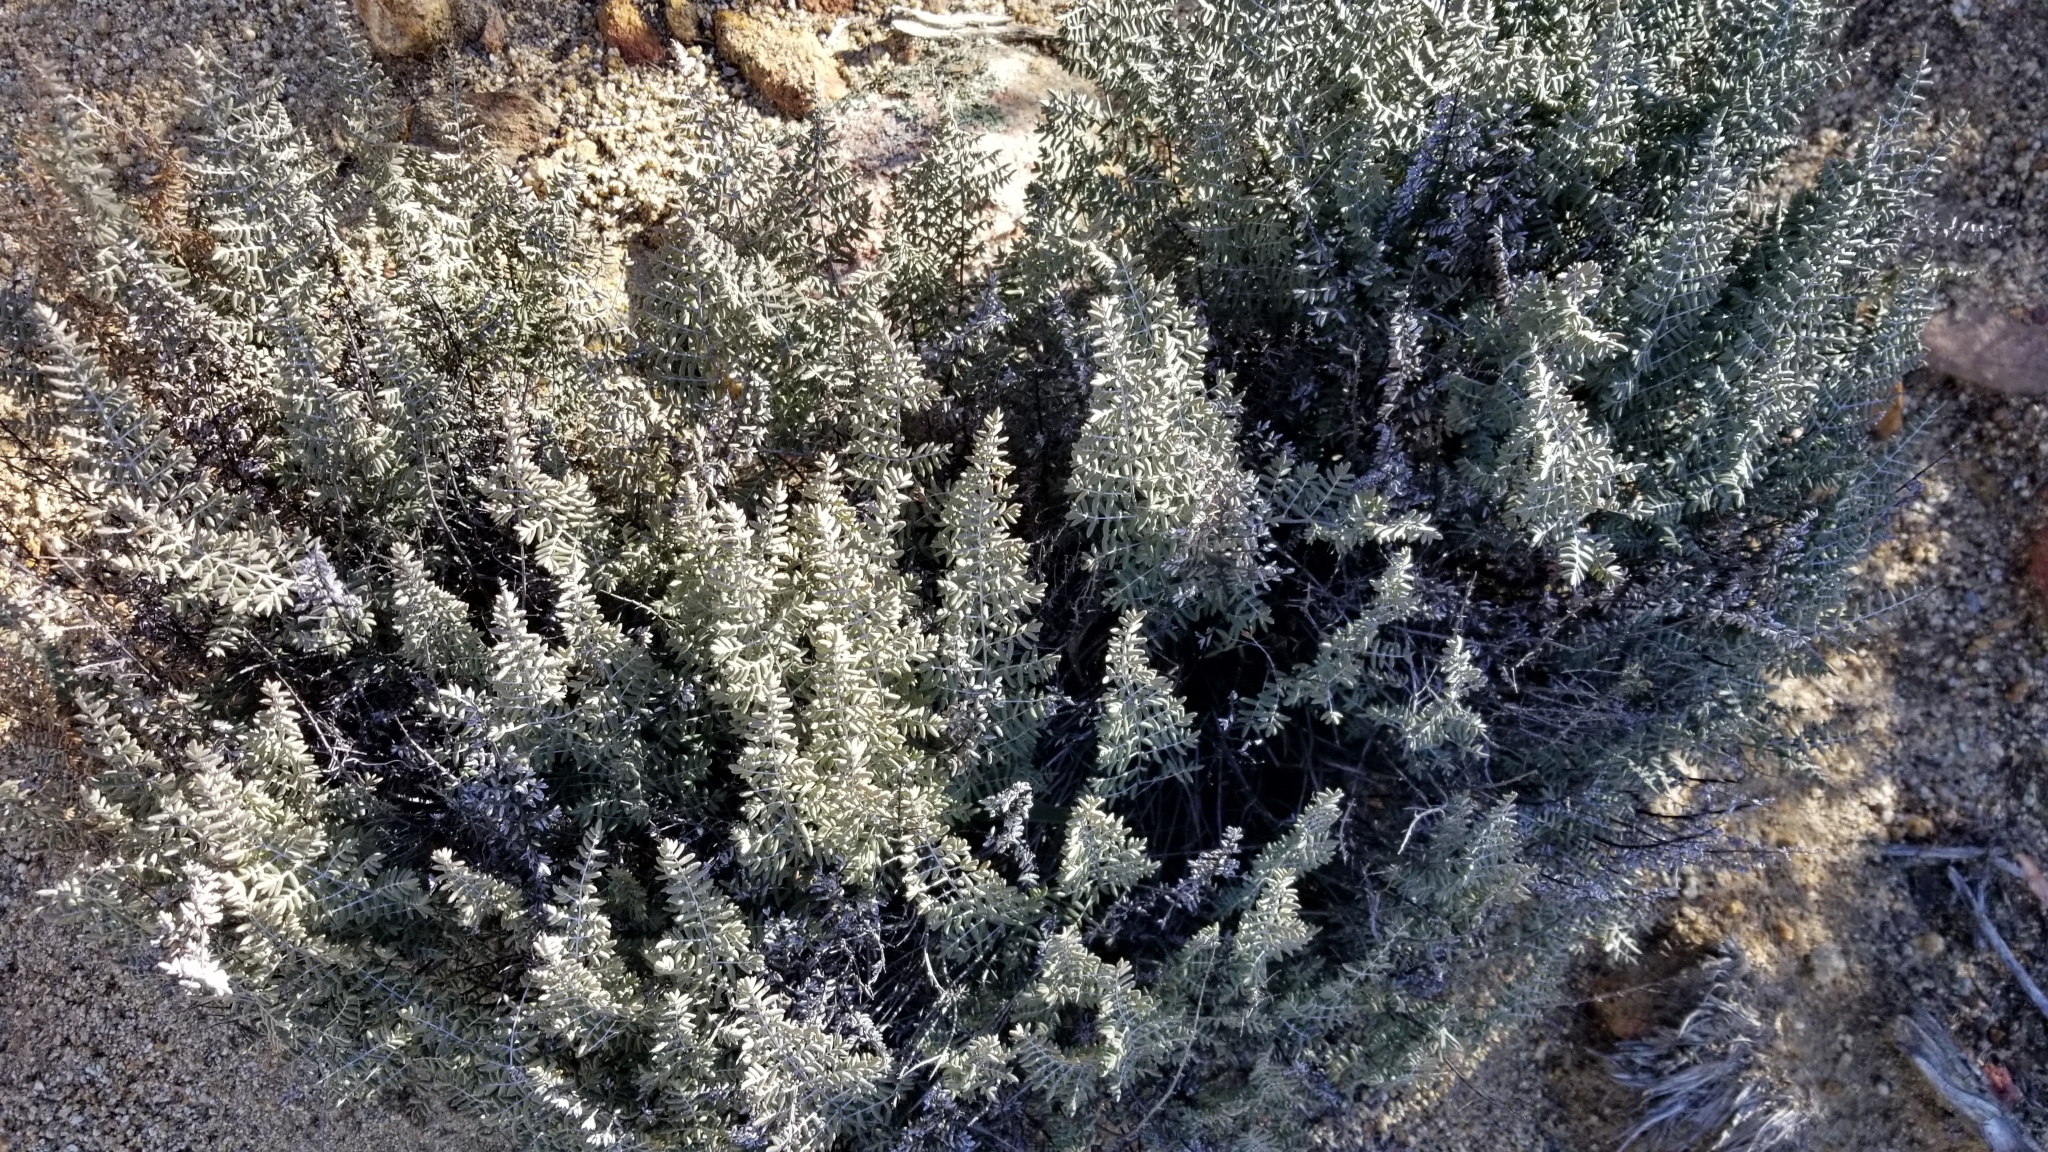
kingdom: Plantae
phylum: Tracheophyta
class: Polypodiopsida
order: Polypodiales
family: Pteridaceae
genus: Pellaea
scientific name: Pellaea mucronata
